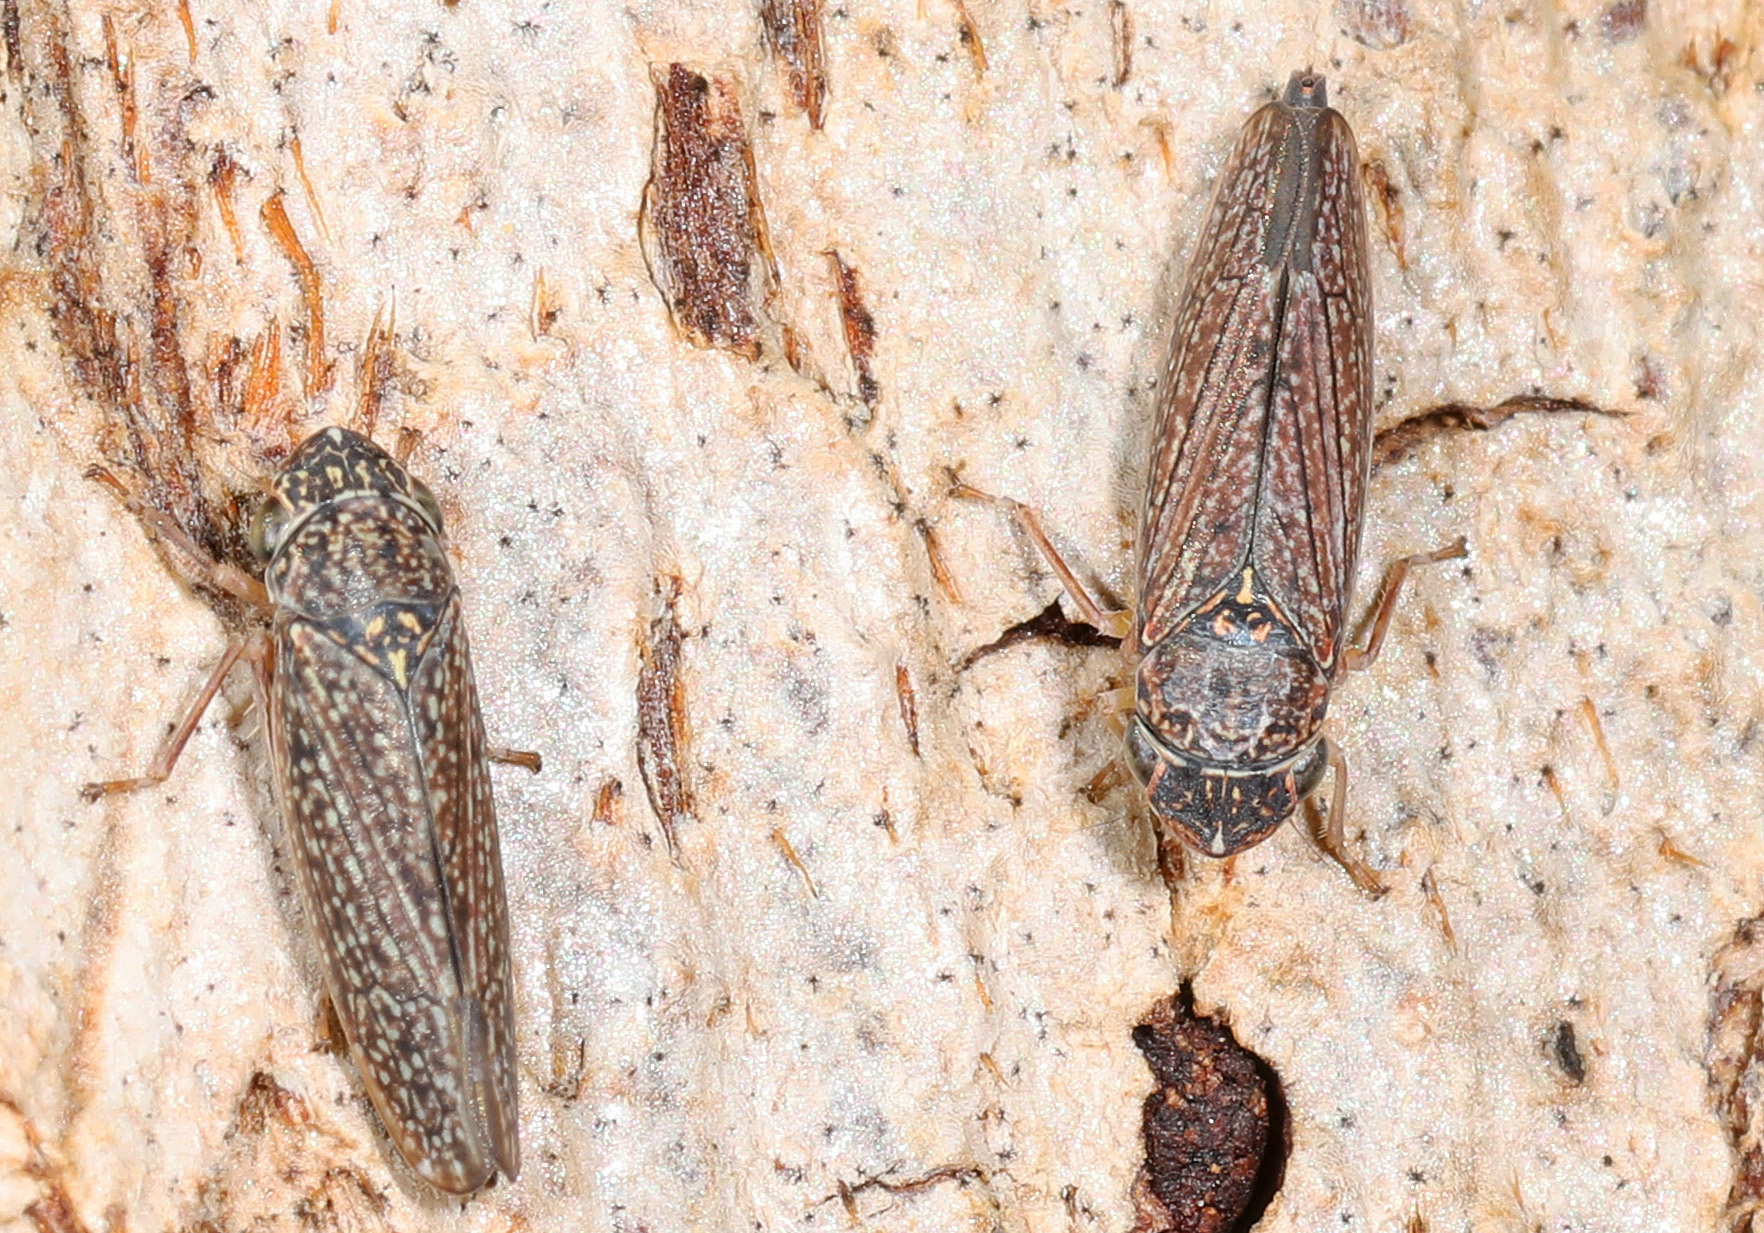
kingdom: Animalia
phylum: Arthropoda
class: Insecta
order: Hemiptera
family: Cicadellidae
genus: Graphocephala
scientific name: Graphocephala confluens
